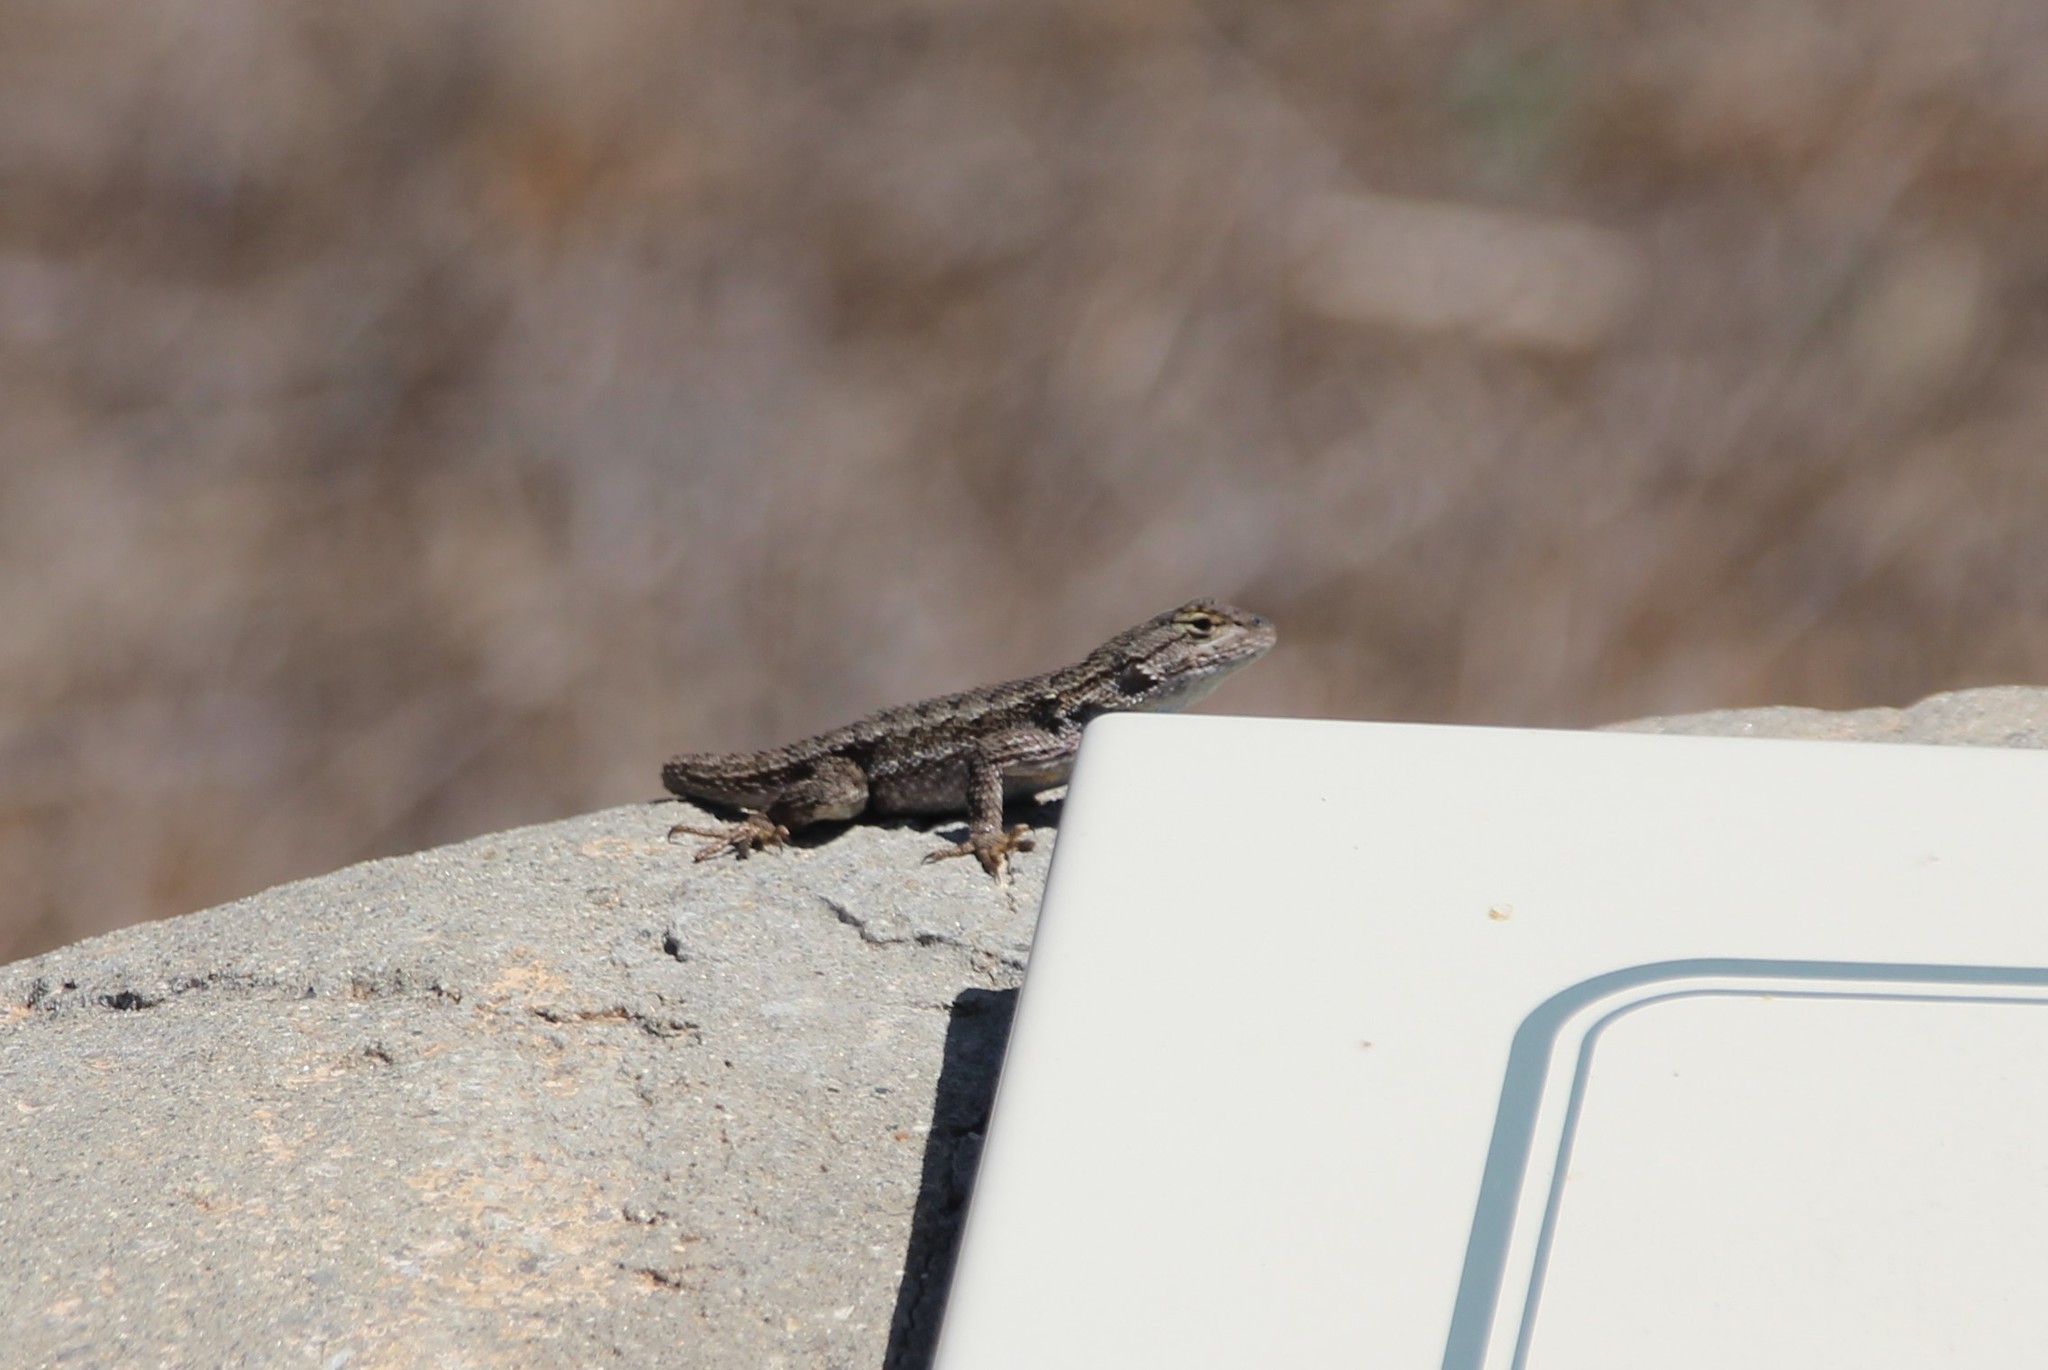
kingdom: Animalia
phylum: Chordata
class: Squamata
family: Phrynosomatidae
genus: Sceloporus
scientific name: Sceloporus occidentalis
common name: Western fence lizard
